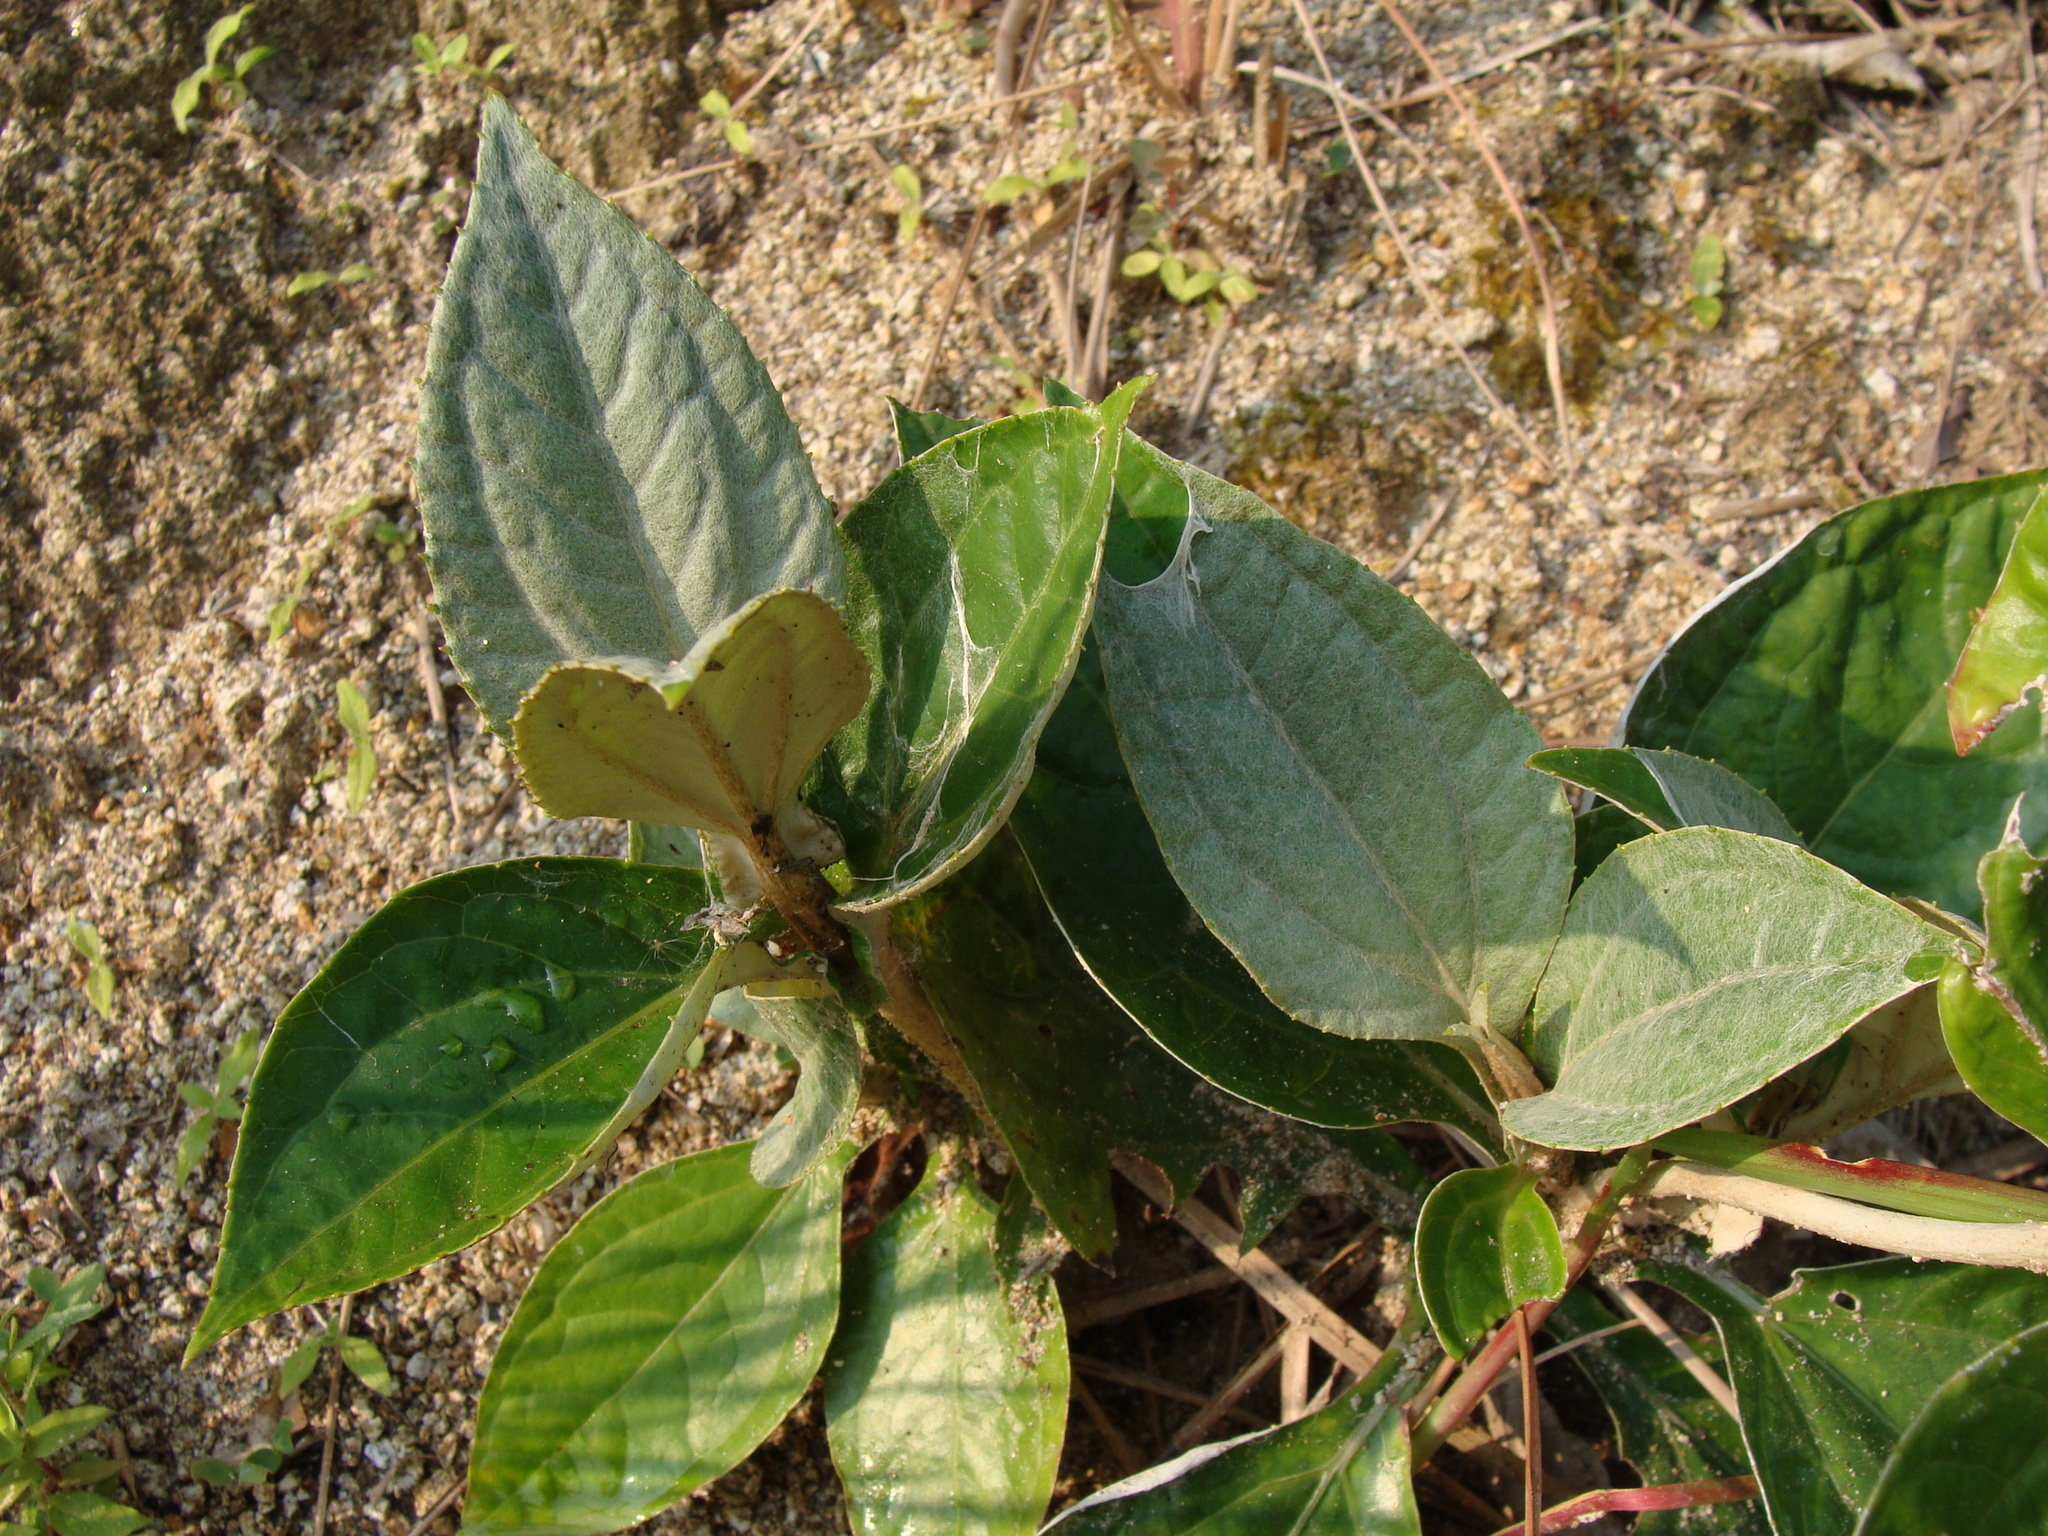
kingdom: Plantae
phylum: Tracheophyta
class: Magnoliopsida
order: Asterales
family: Asteraceae
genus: Liabum
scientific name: Liabum asclepiadeum
